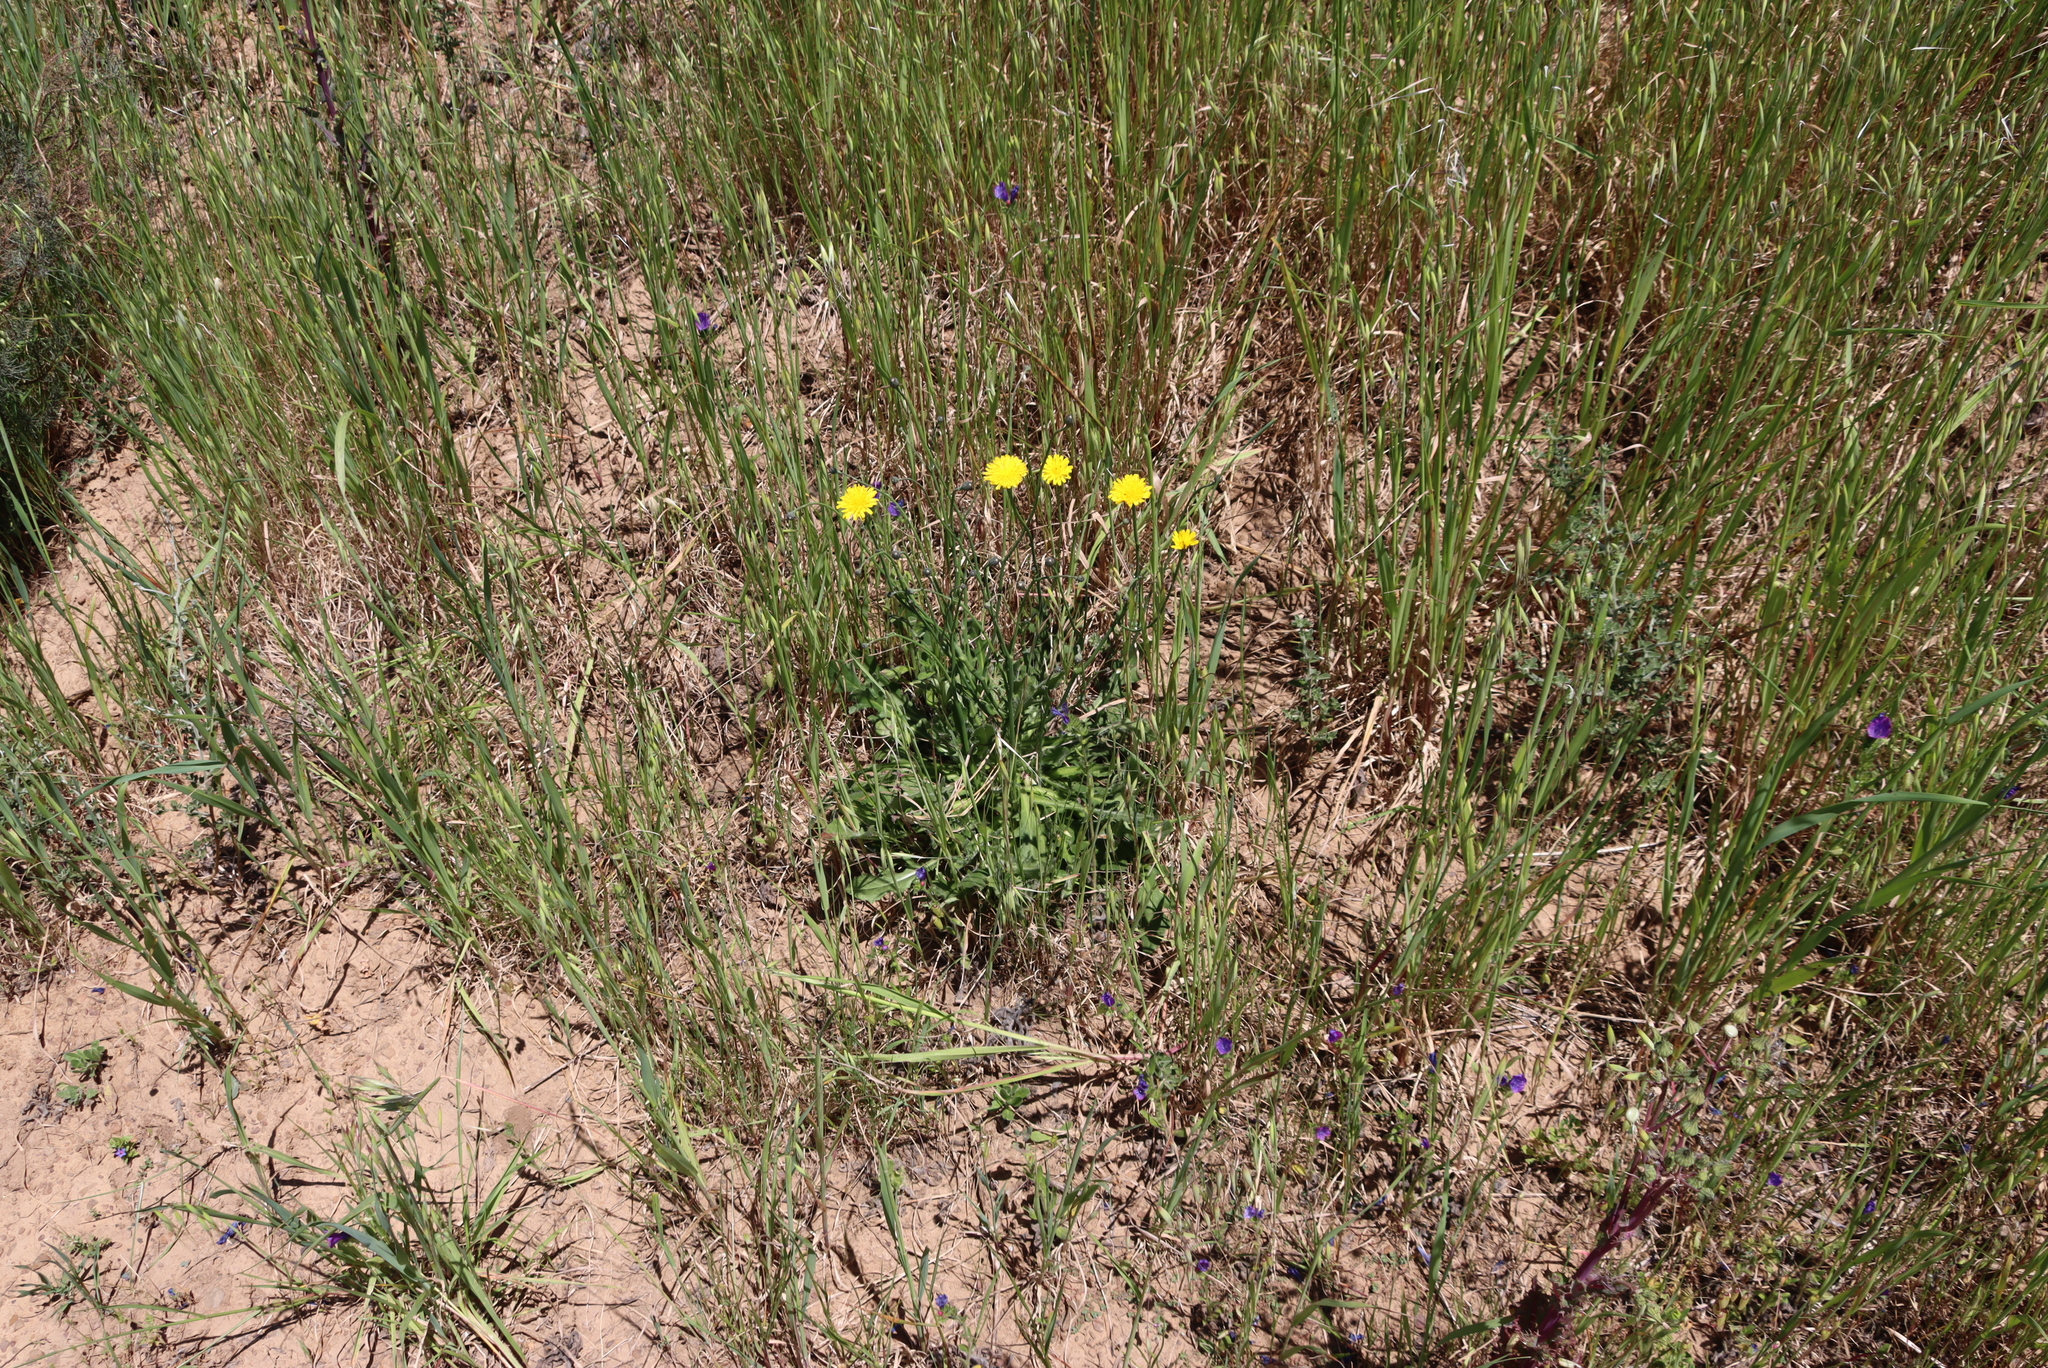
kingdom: Plantae
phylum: Tracheophyta
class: Magnoliopsida
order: Asterales
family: Asteraceae
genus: Hypochaeris
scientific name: Hypochaeris radicata
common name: Flatweed
